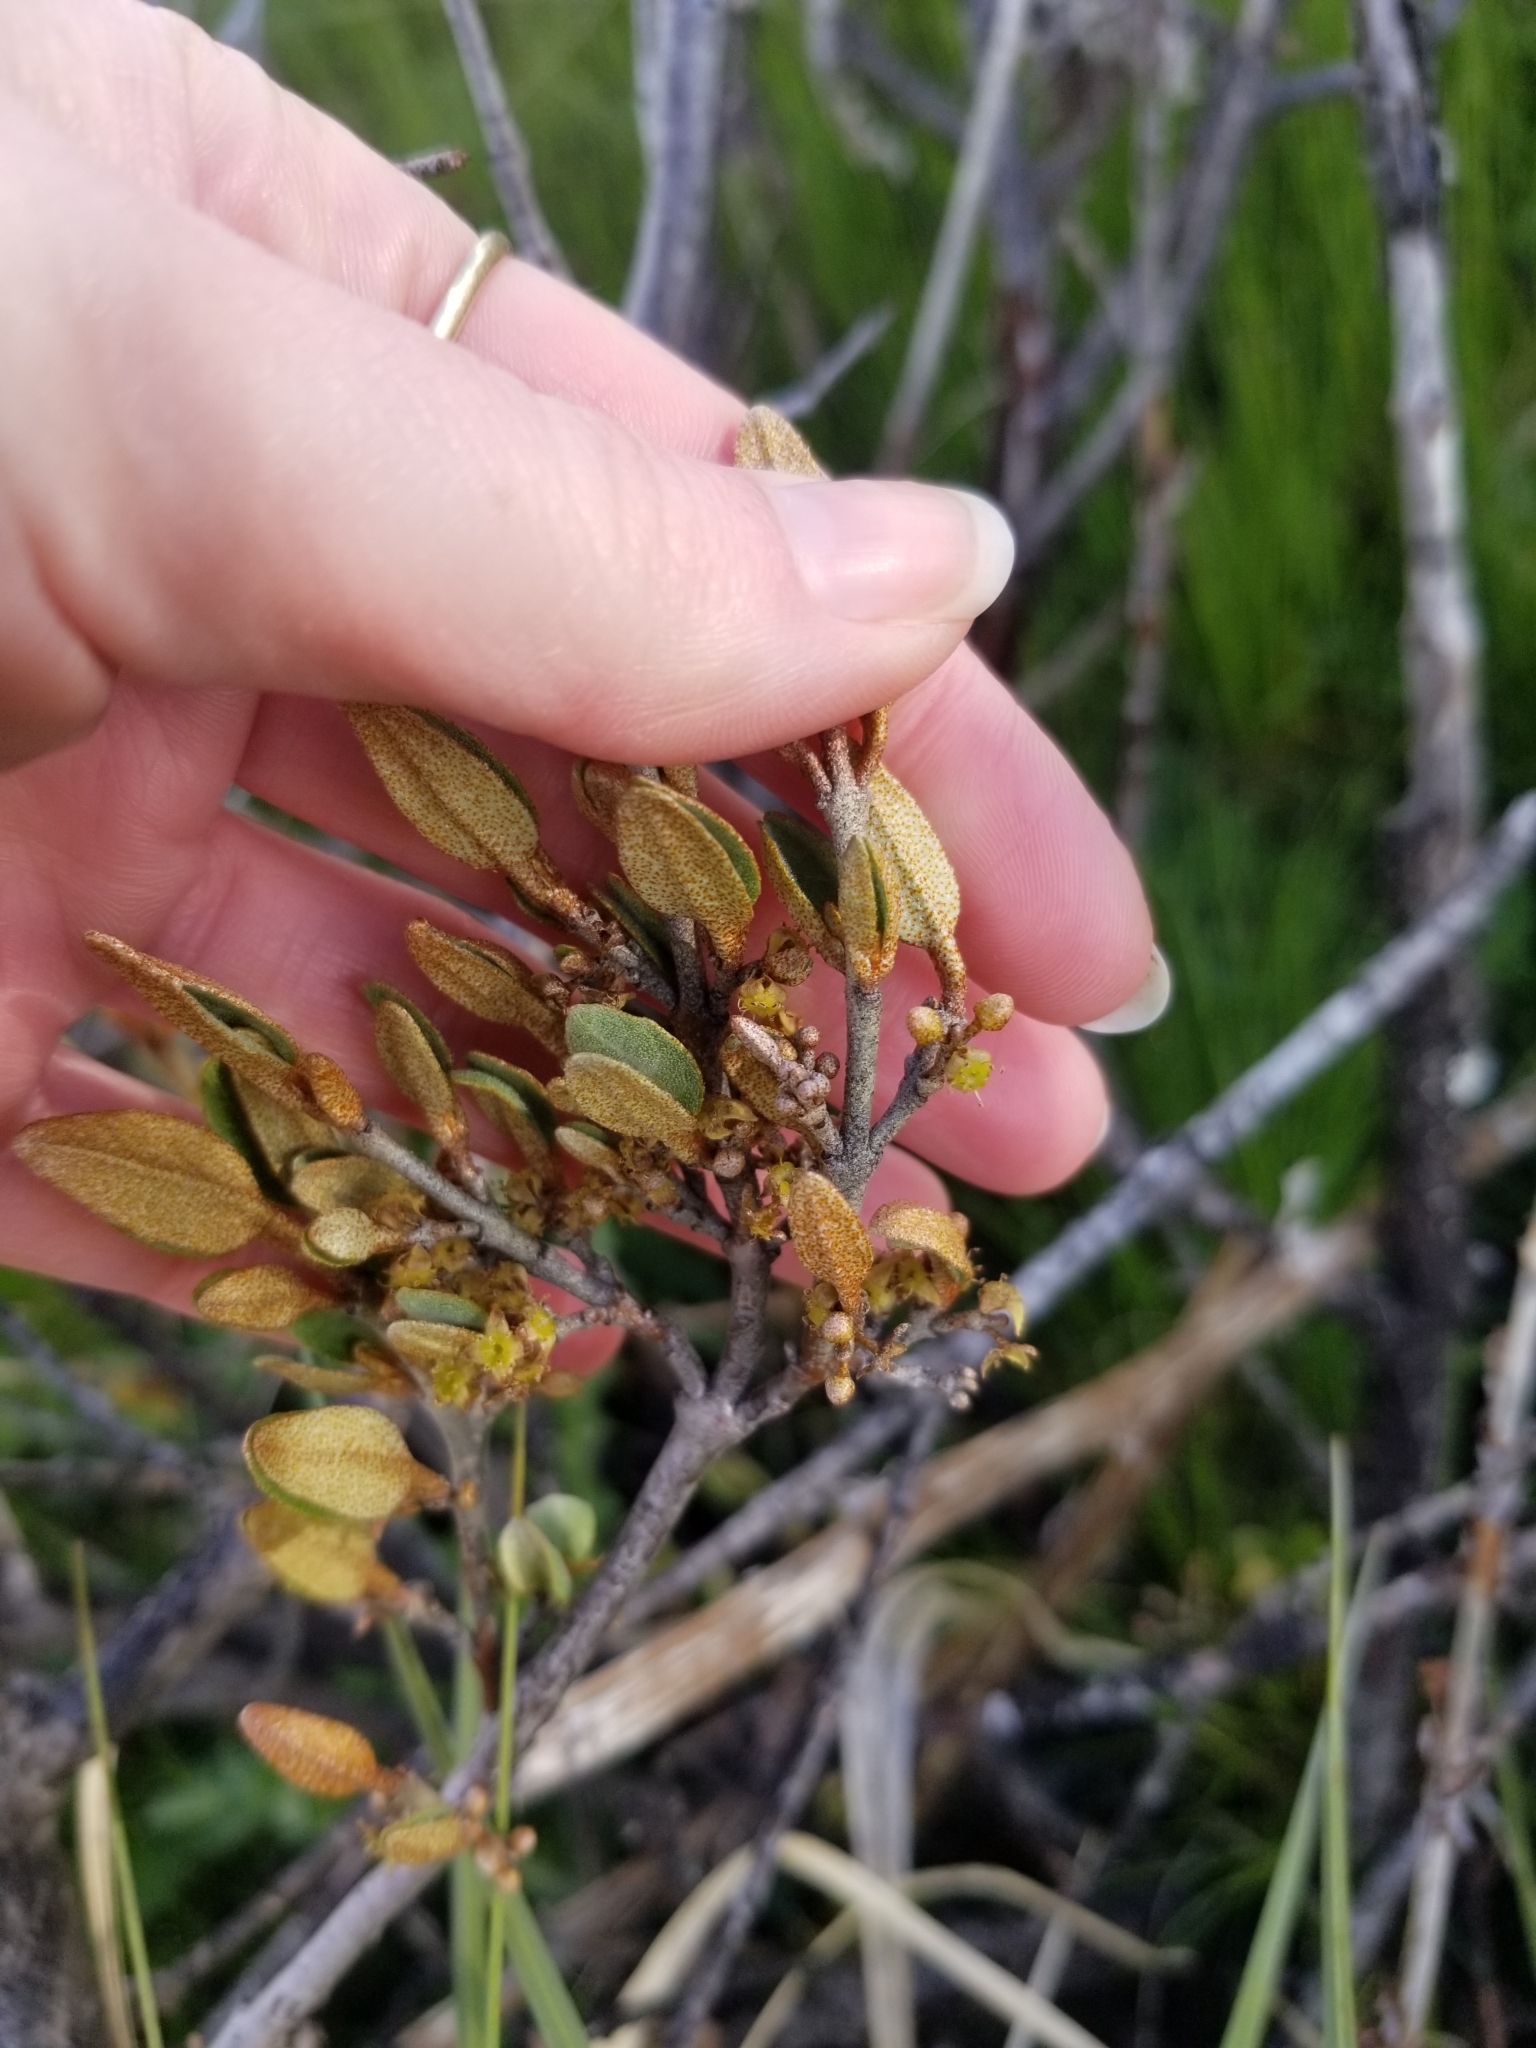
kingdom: Plantae
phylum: Tracheophyta
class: Magnoliopsida
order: Rosales
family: Elaeagnaceae
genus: Shepherdia
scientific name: Shepherdia canadensis
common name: Soapberry
